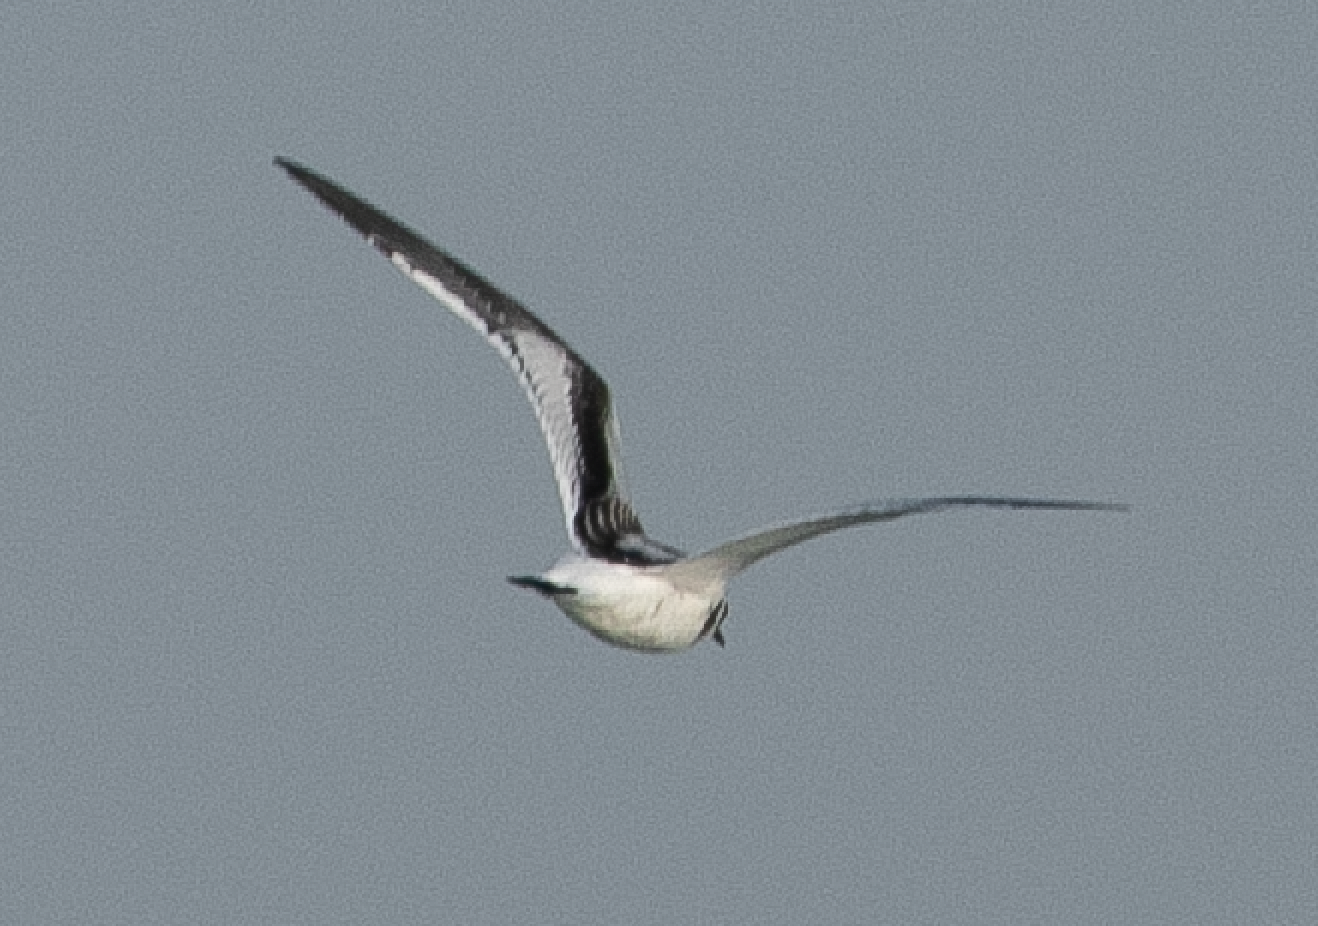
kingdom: Animalia
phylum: Chordata
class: Aves
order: Charadriiformes
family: Laridae
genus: Hydrocoloeus
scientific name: Hydrocoloeus minutus
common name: Little gull
